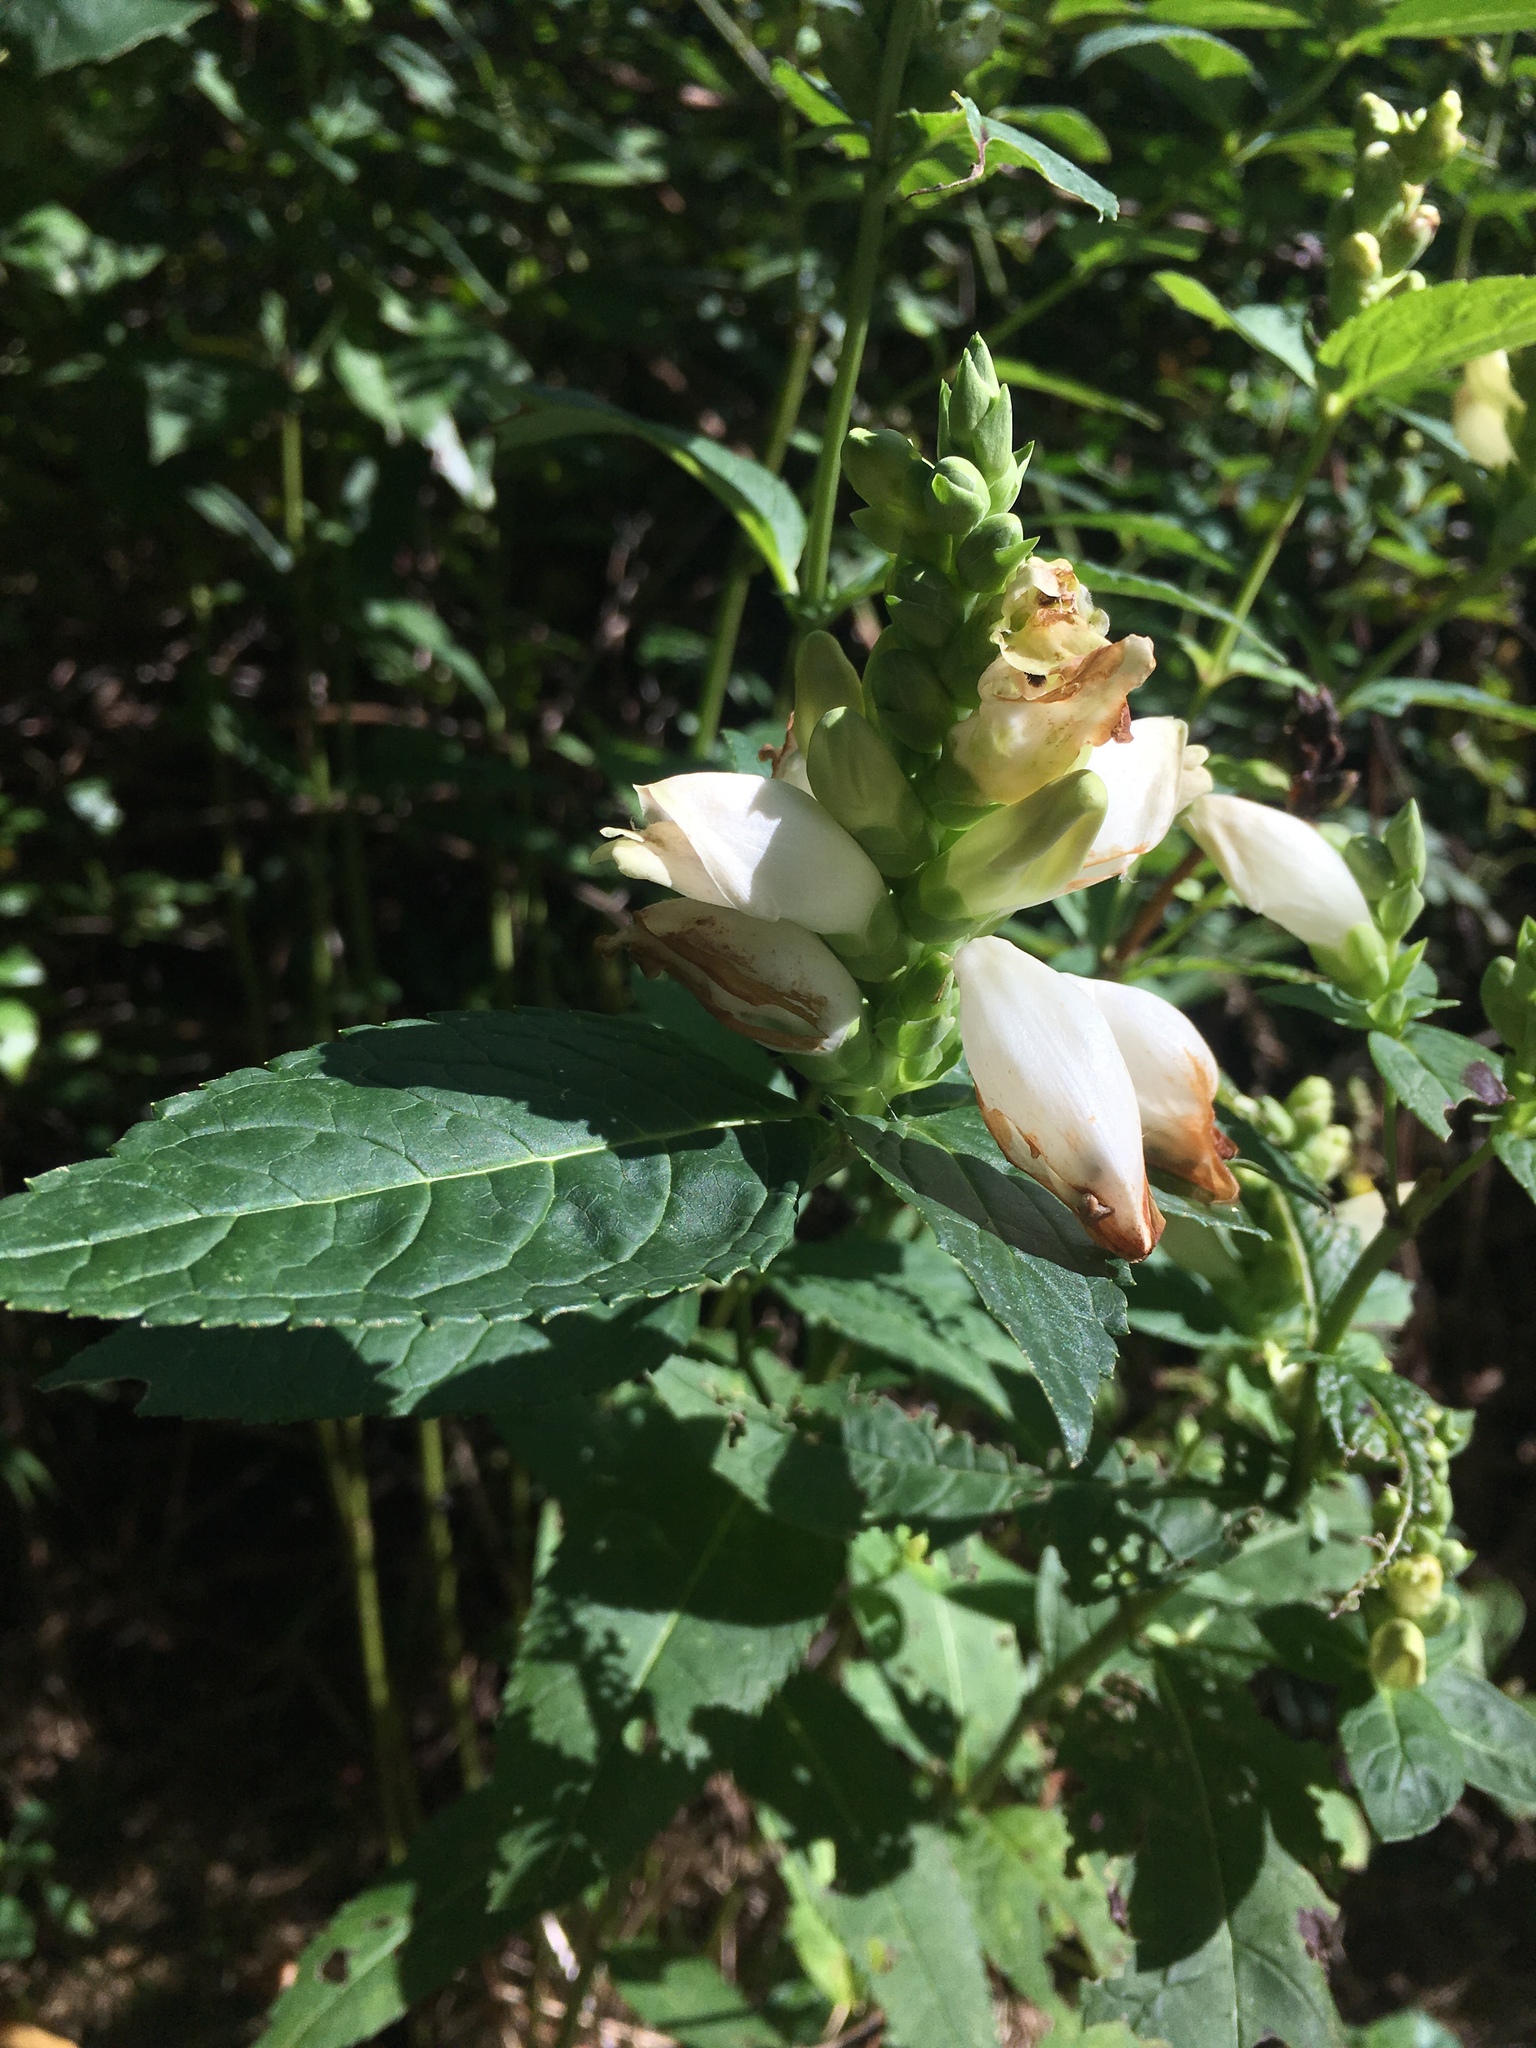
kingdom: Plantae
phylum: Tracheophyta
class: Magnoliopsida
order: Lamiales
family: Plantaginaceae
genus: Chelone
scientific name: Chelone glabra
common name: Snakehead
